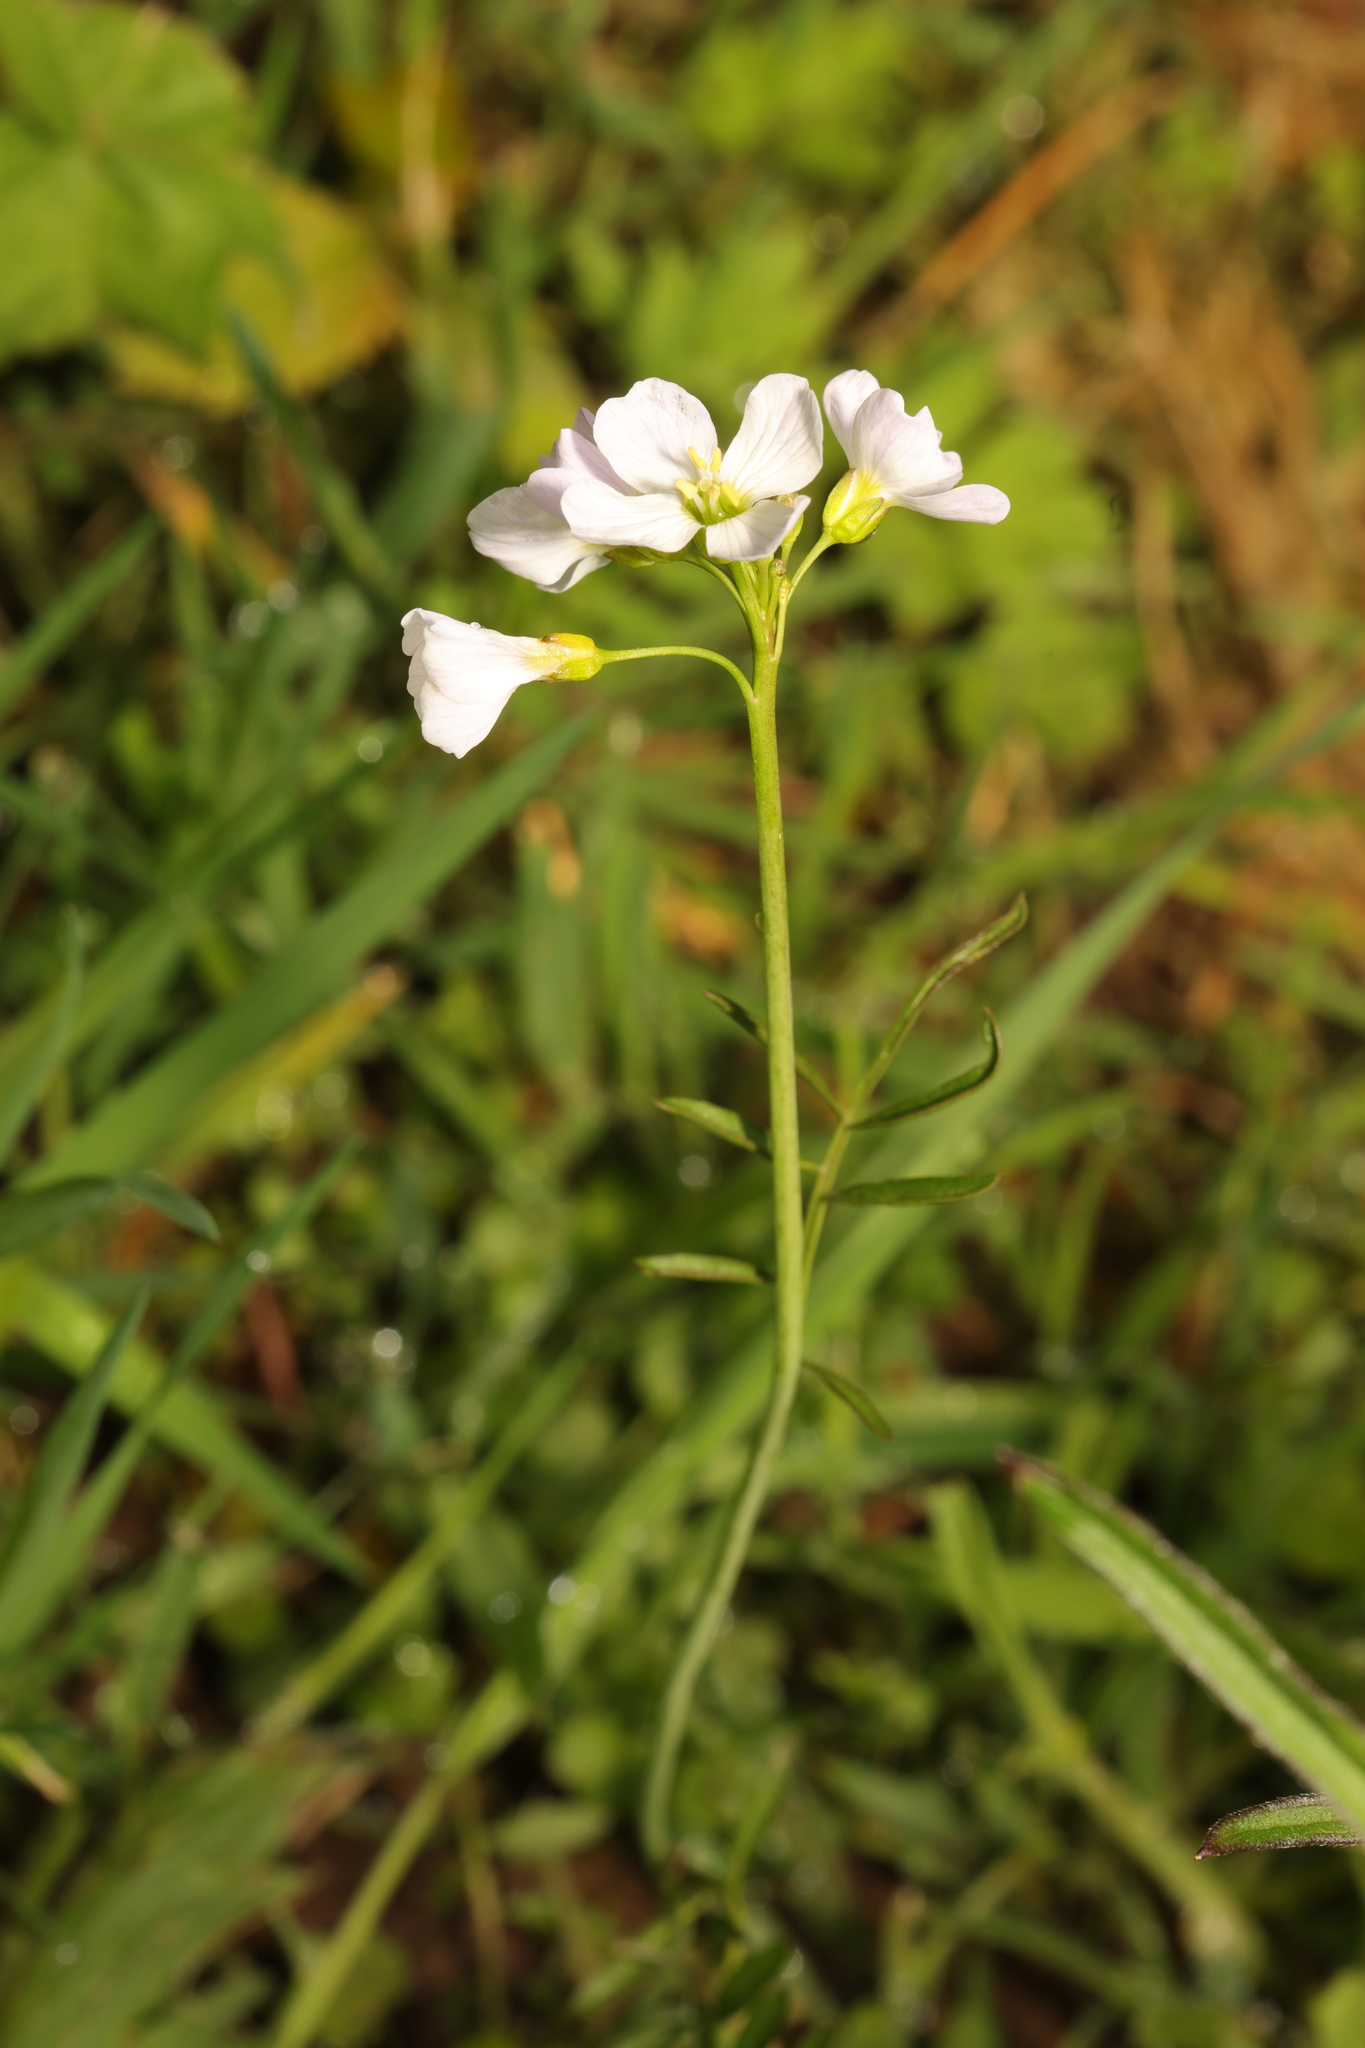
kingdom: Plantae
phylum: Tracheophyta
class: Magnoliopsida
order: Brassicales
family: Brassicaceae
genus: Cardamine
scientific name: Cardamine pratensis
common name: Cuckoo flower
